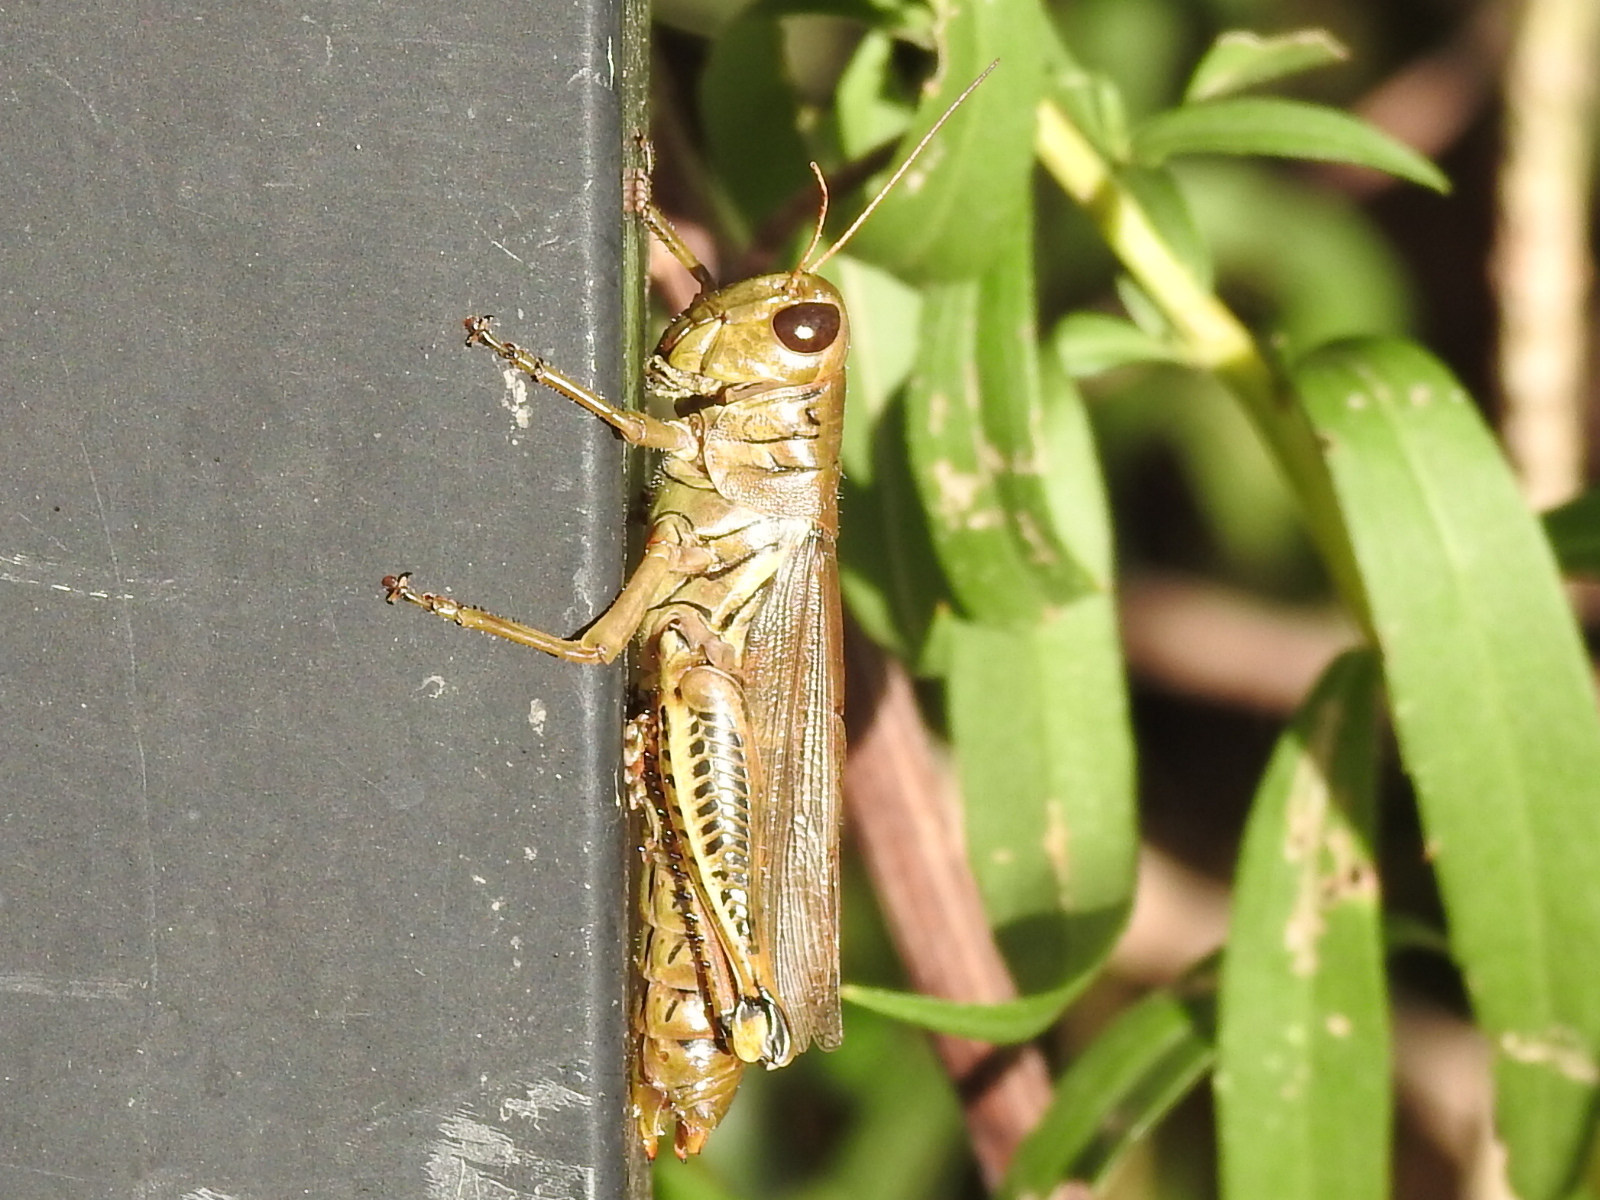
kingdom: Animalia
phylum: Arthropoda
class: Insecta
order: Orthoptera
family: Acrididae
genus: Melanoplus
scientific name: Melanoplus differentialis
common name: Differential grasshopper
